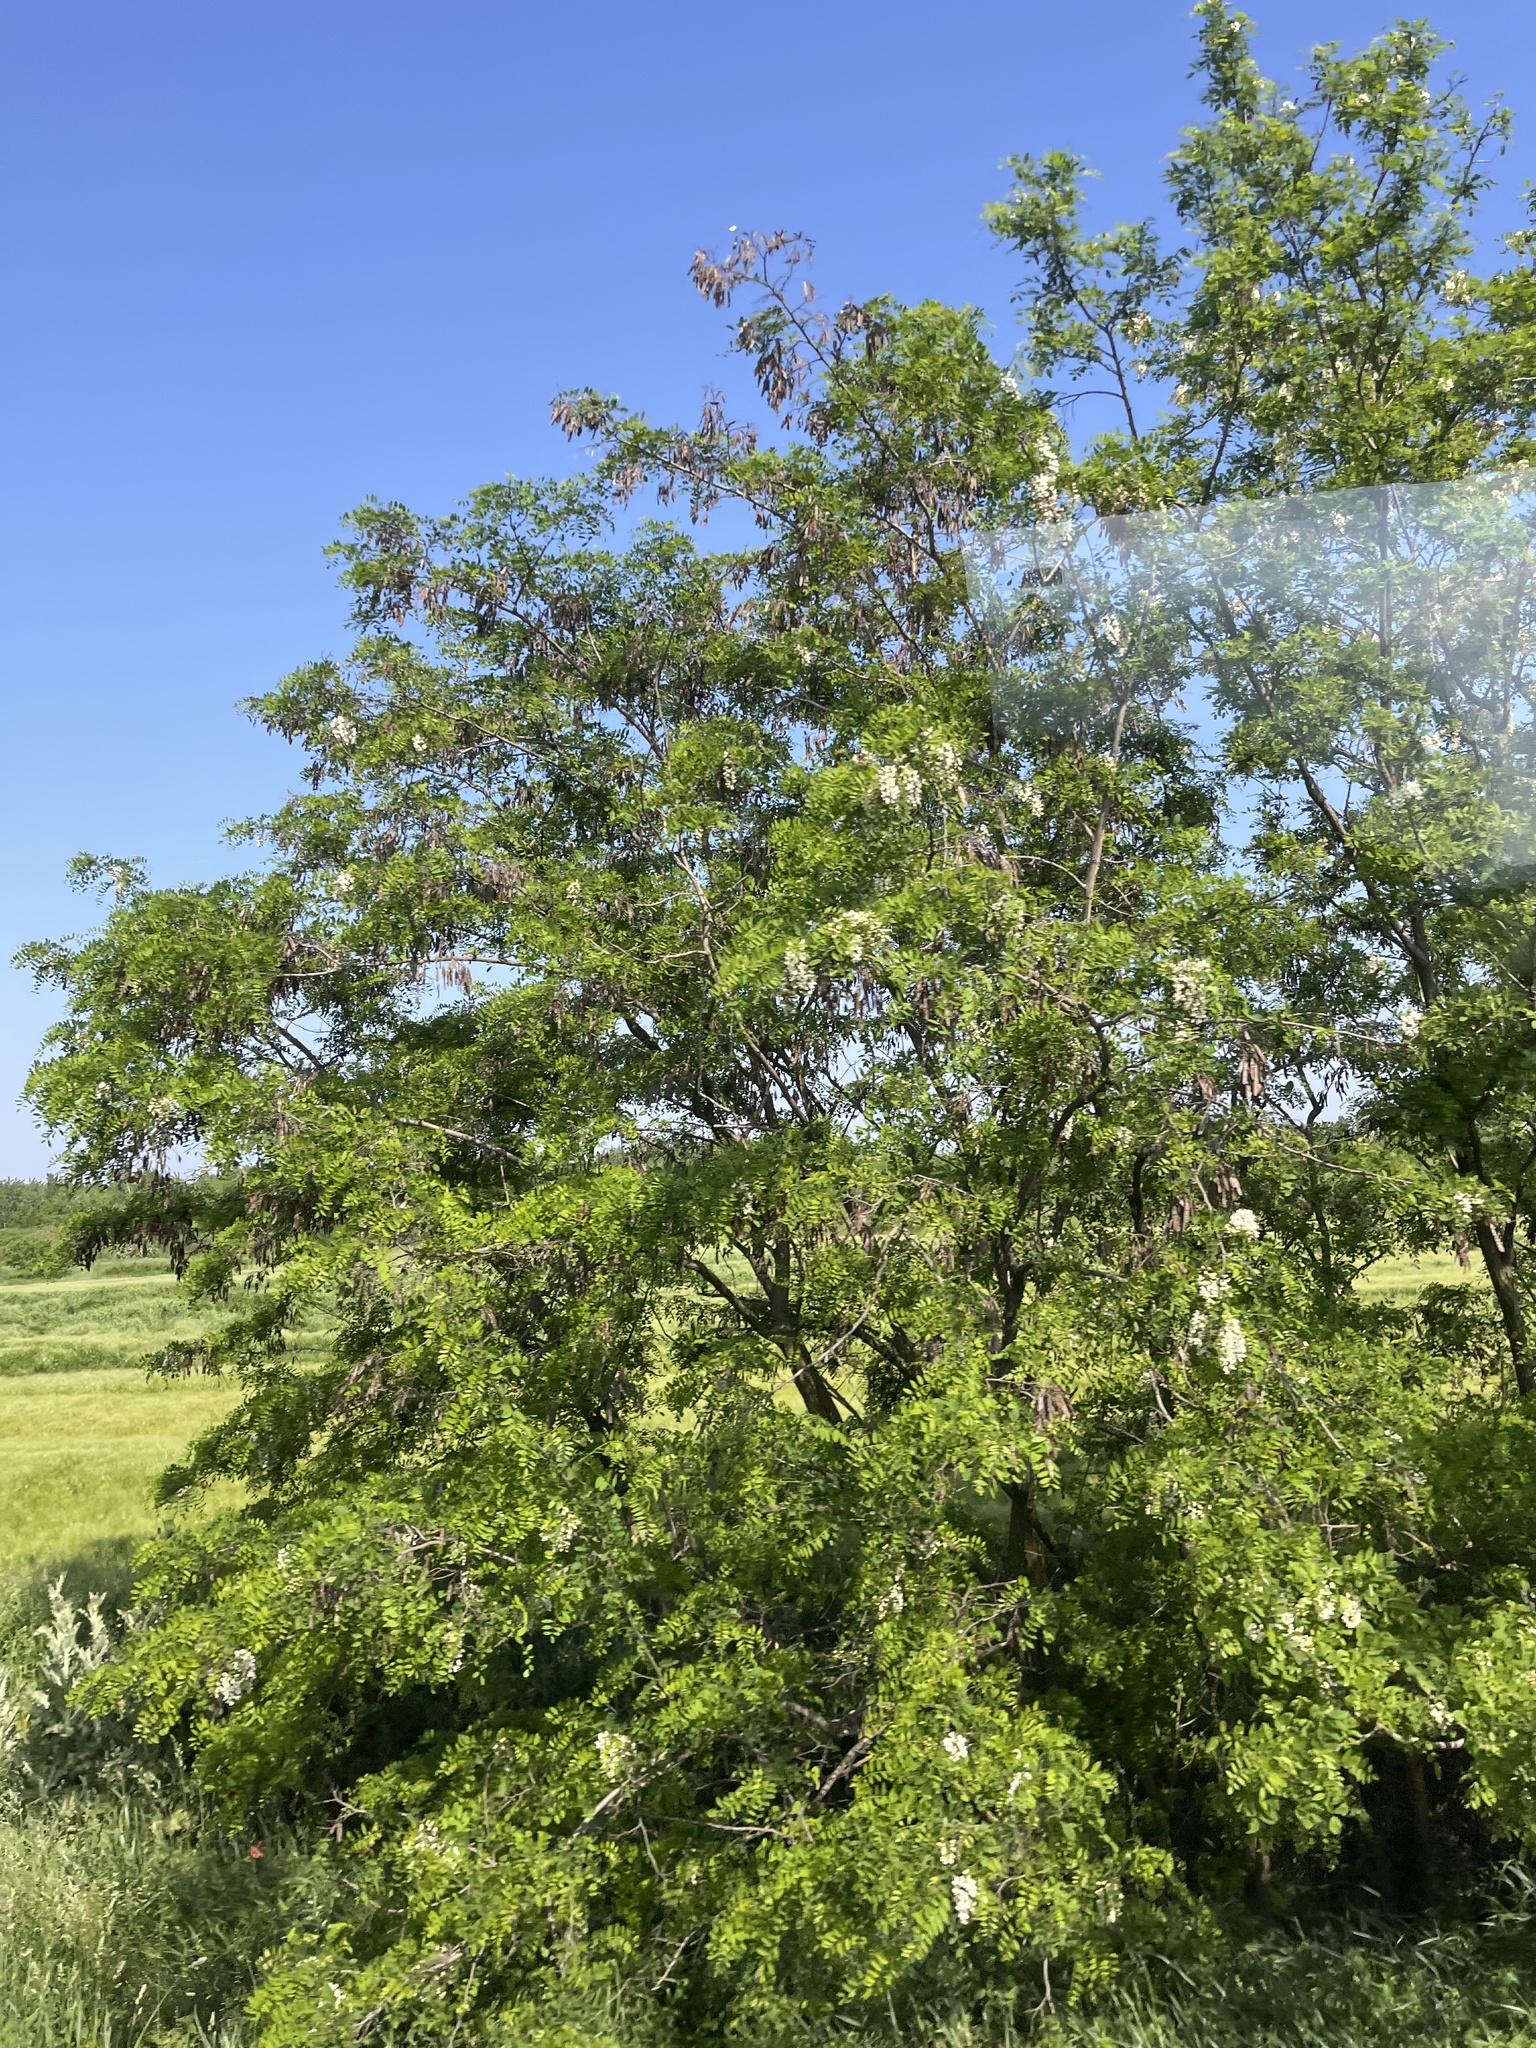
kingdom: Plantae
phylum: Tracheophyta
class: Magnoliopsida
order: Fabales
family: Fabaceae
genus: Robinia
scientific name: Robinia pseudoacacia
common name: Black locust
